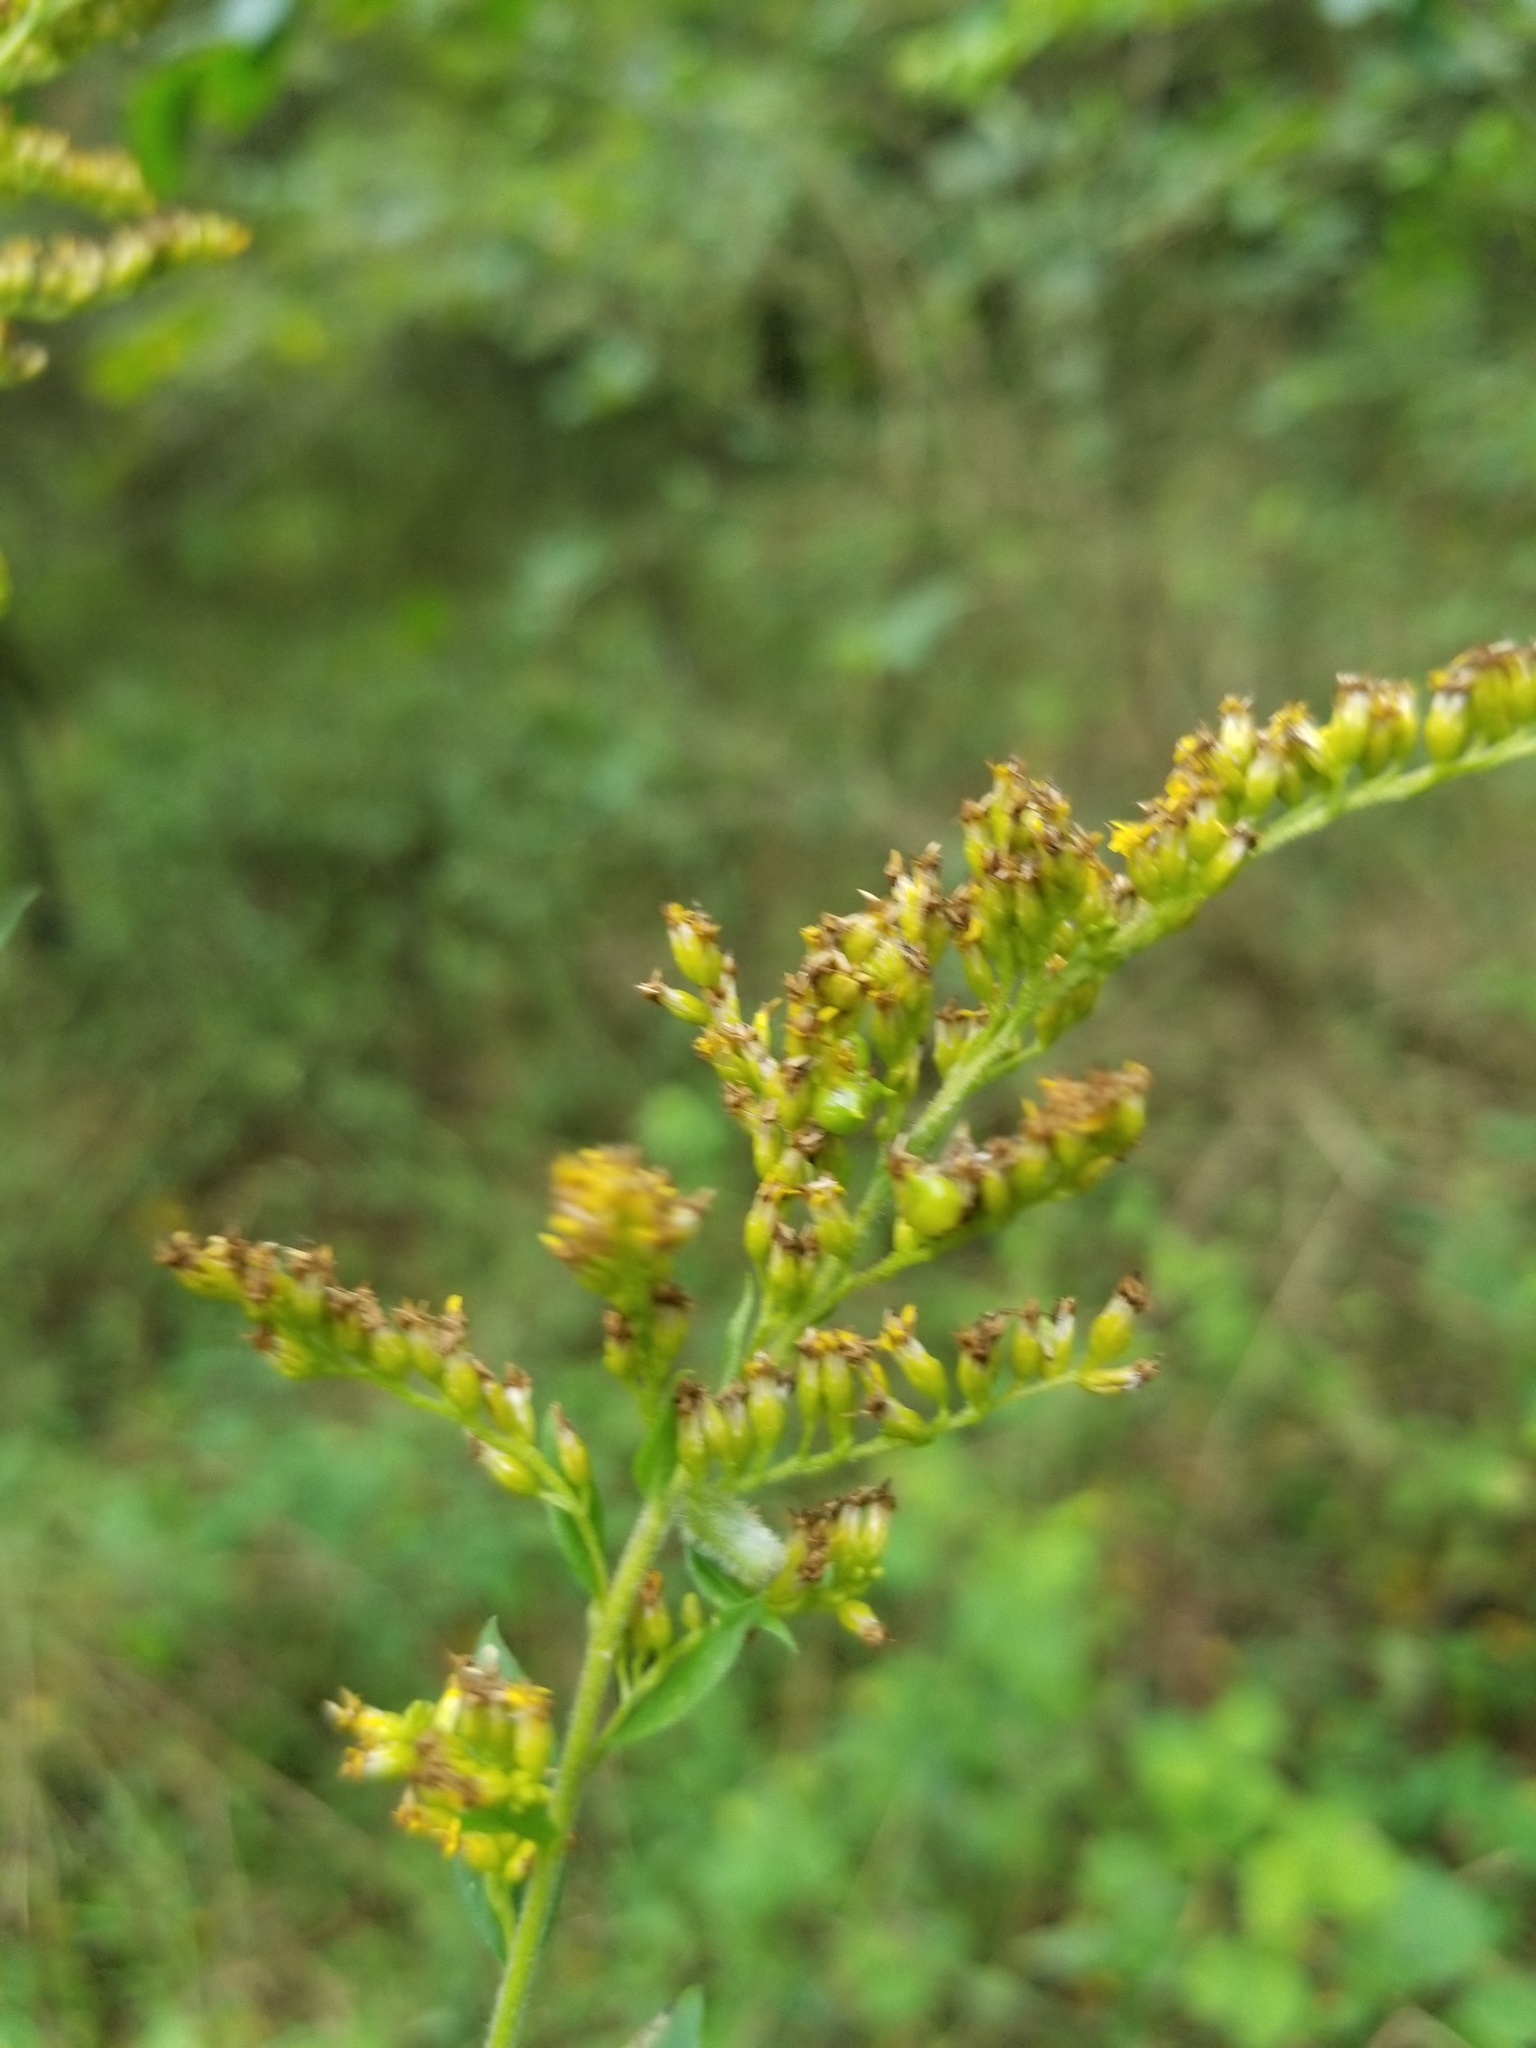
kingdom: Animalia
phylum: Arthropoda
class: Insecta
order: Diptera
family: Cecidomyiidae
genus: Rhopalomyia
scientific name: Rhopalomyia anthophila
